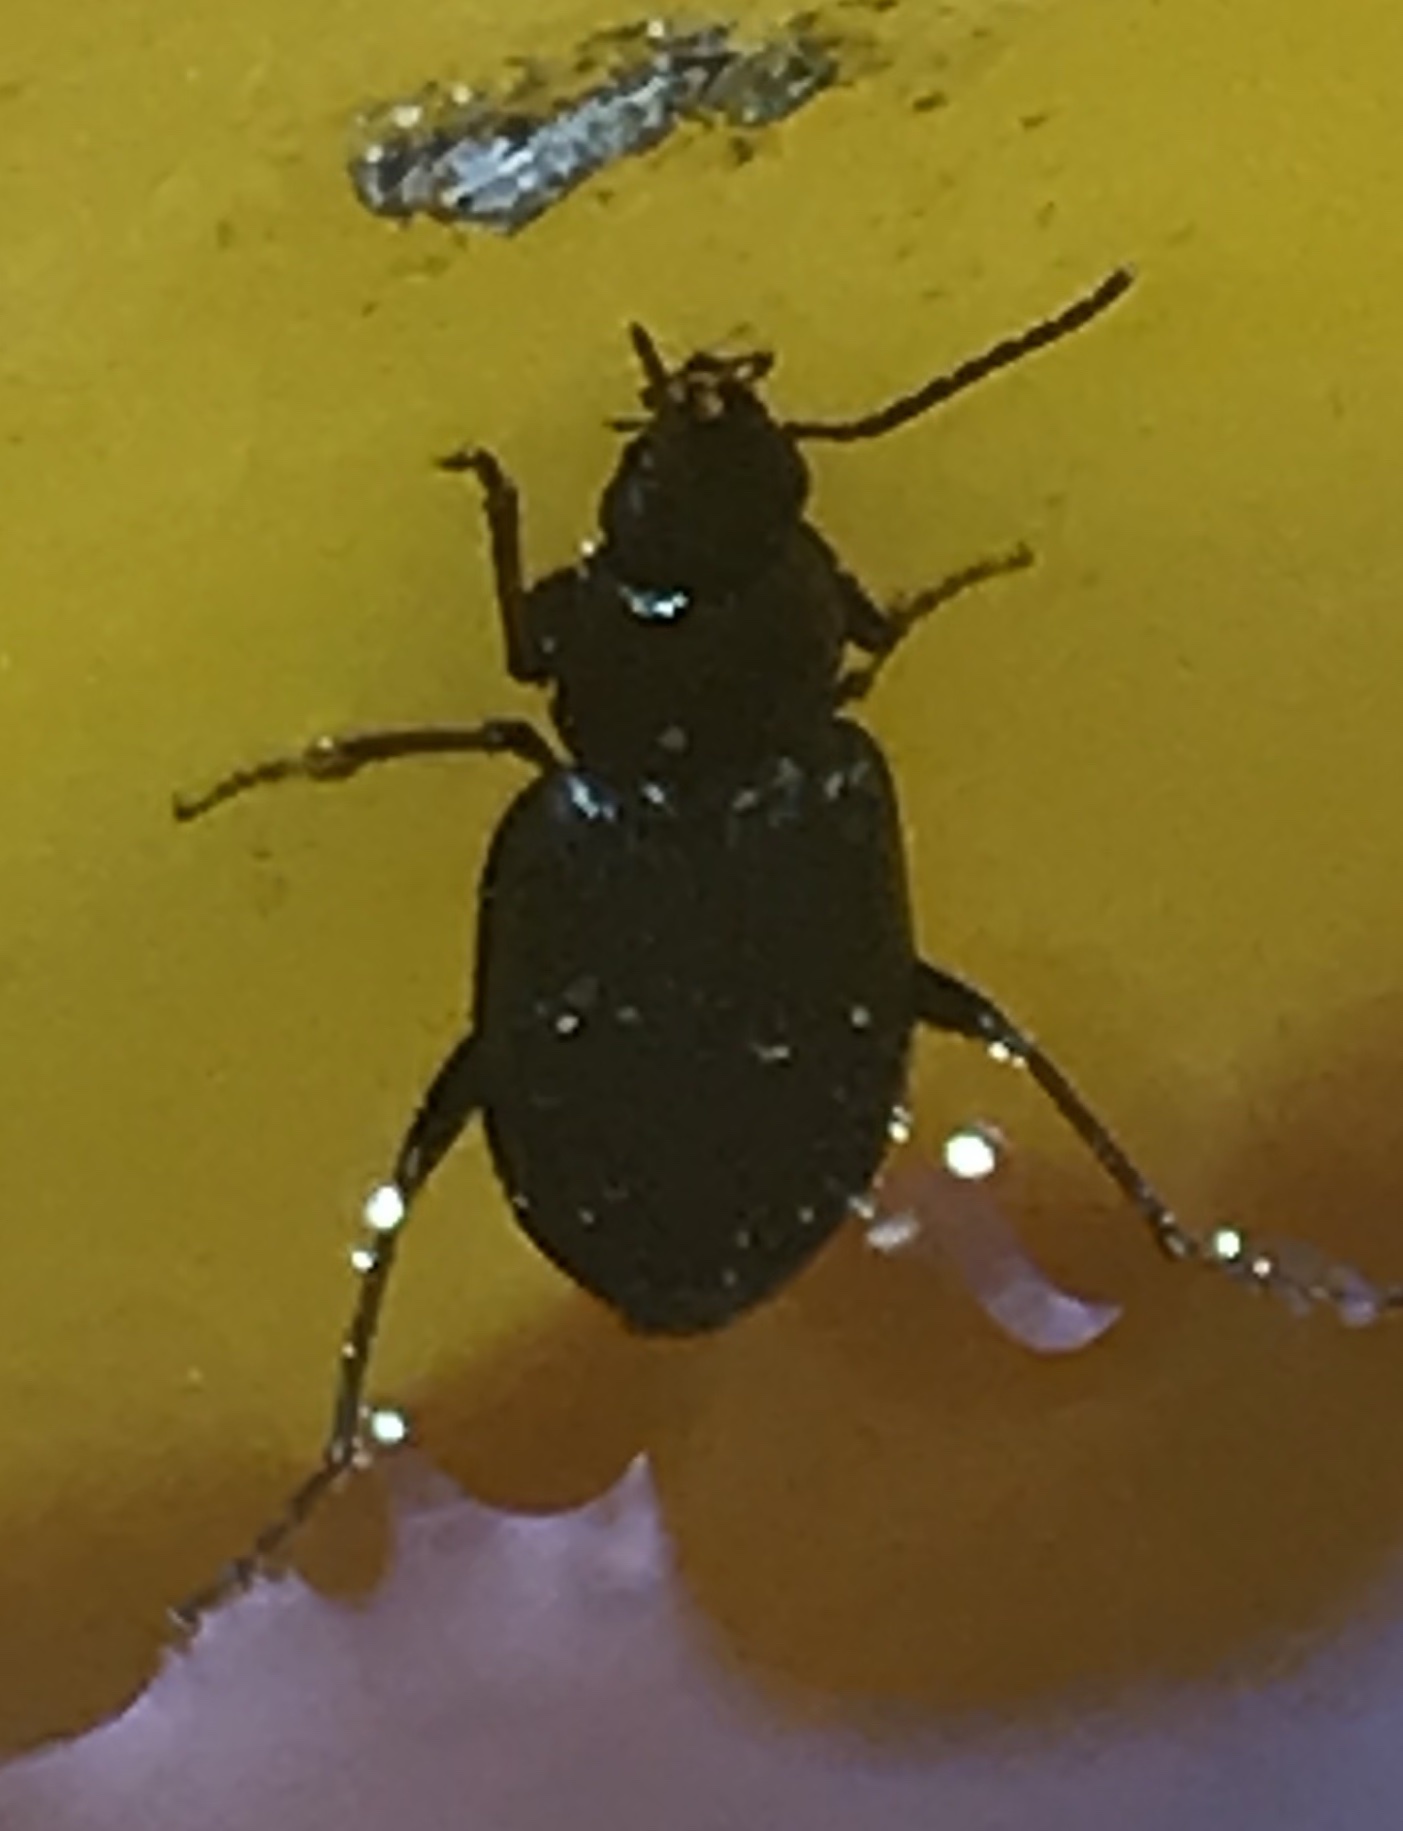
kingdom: Animalia
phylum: Arthropoda
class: Insecta
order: Coleoptera
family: Carabidae
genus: Agonum
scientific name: Agonum
